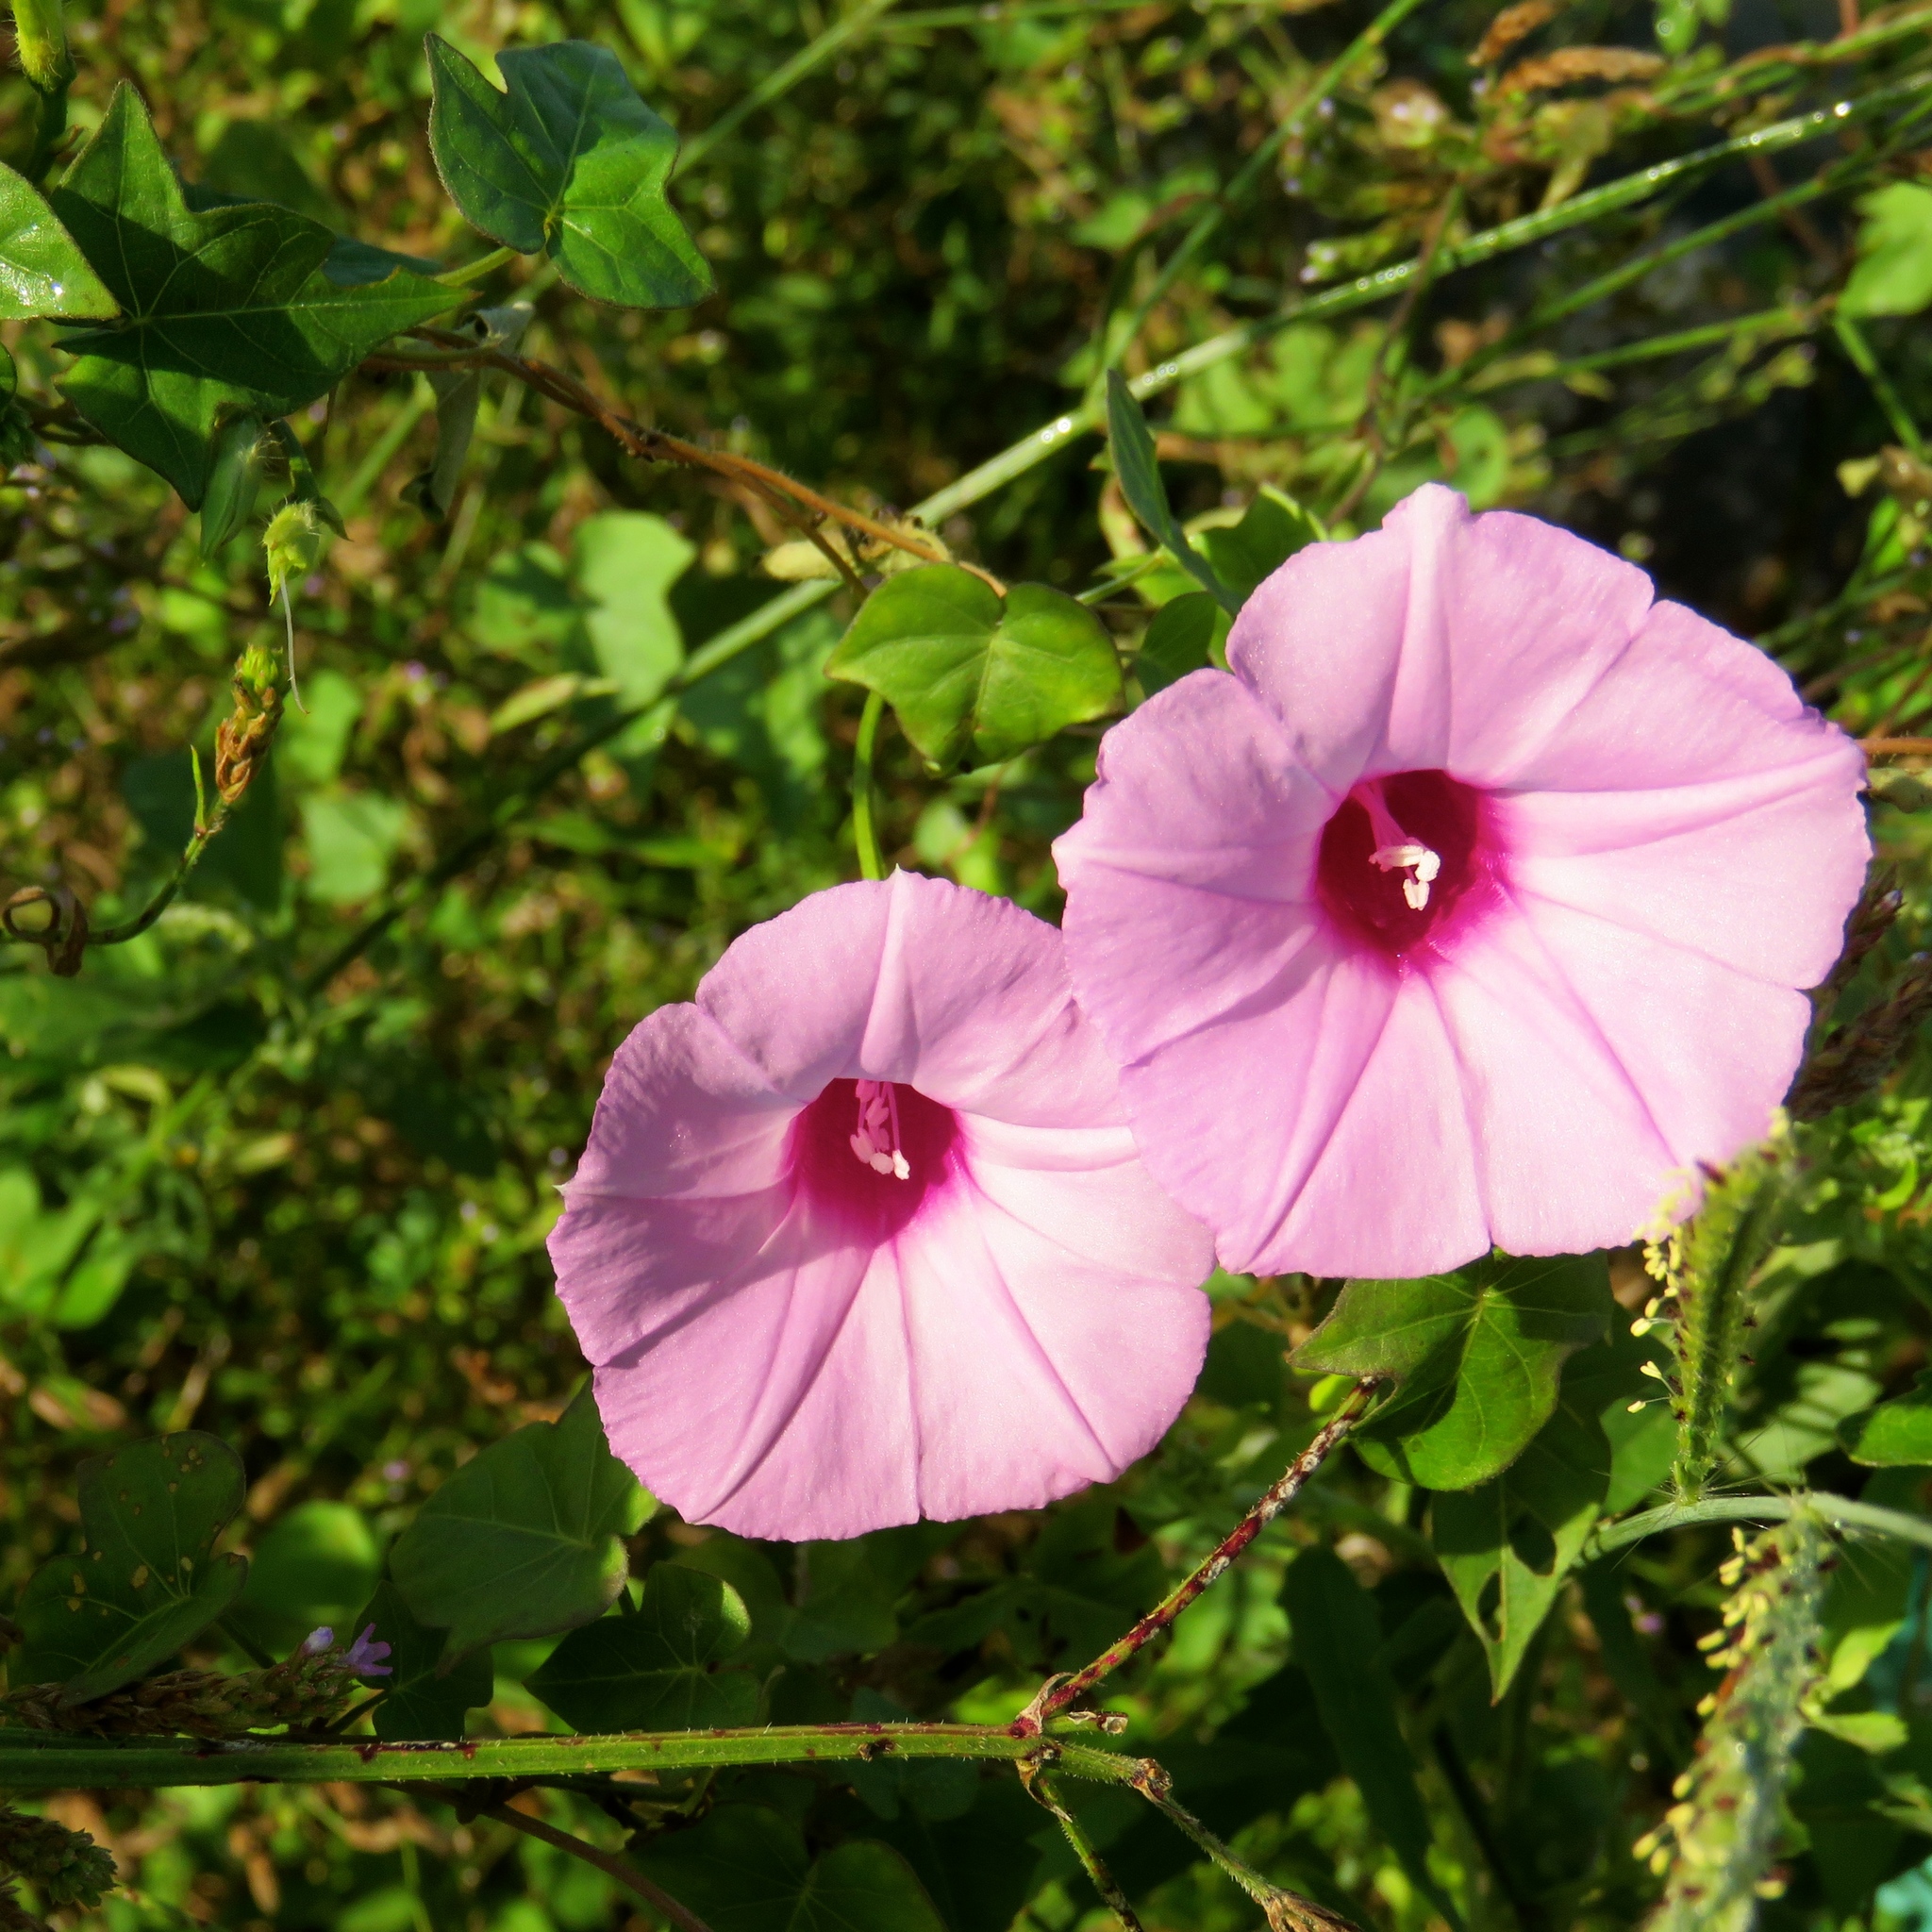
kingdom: Plantae
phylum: Tracheophyta
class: Magnoliopsida
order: Solanales
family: Convolvulaceae
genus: Ipomoea
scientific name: Ipomoea cordatotriloba
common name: Cotton morning glory
